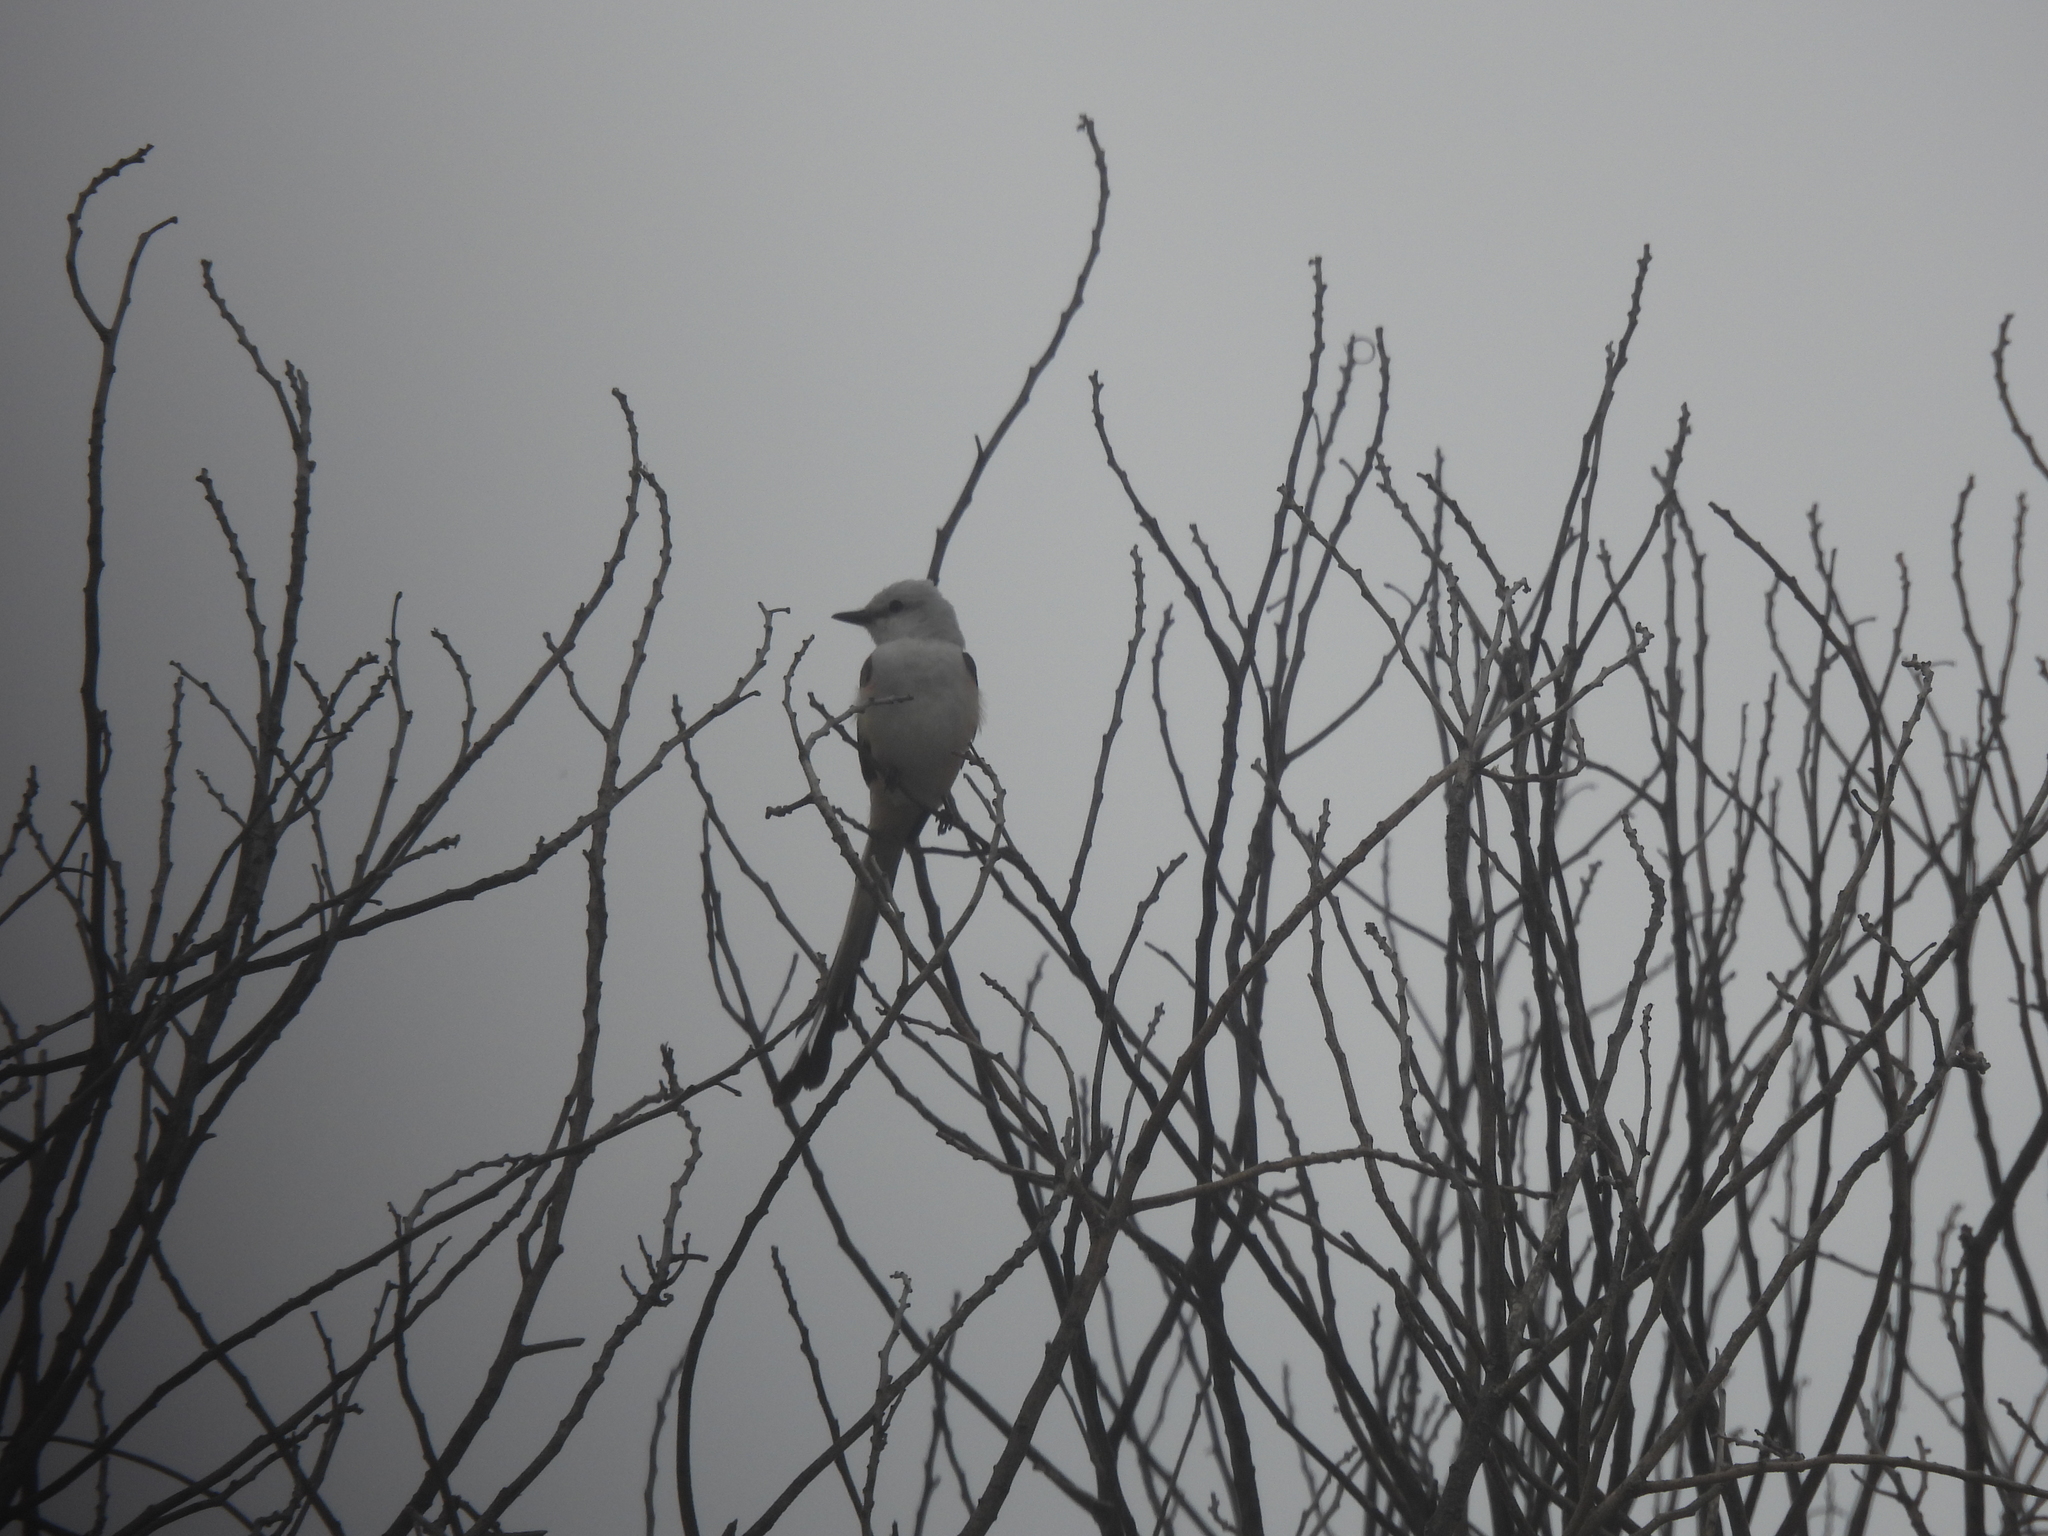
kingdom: Animalia
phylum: Chordata
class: Aves
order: Passeriformes
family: Tyrannidae
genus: Tyrannus
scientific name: Tyrannus forficatus
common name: Scissor-tailed flycatcher
